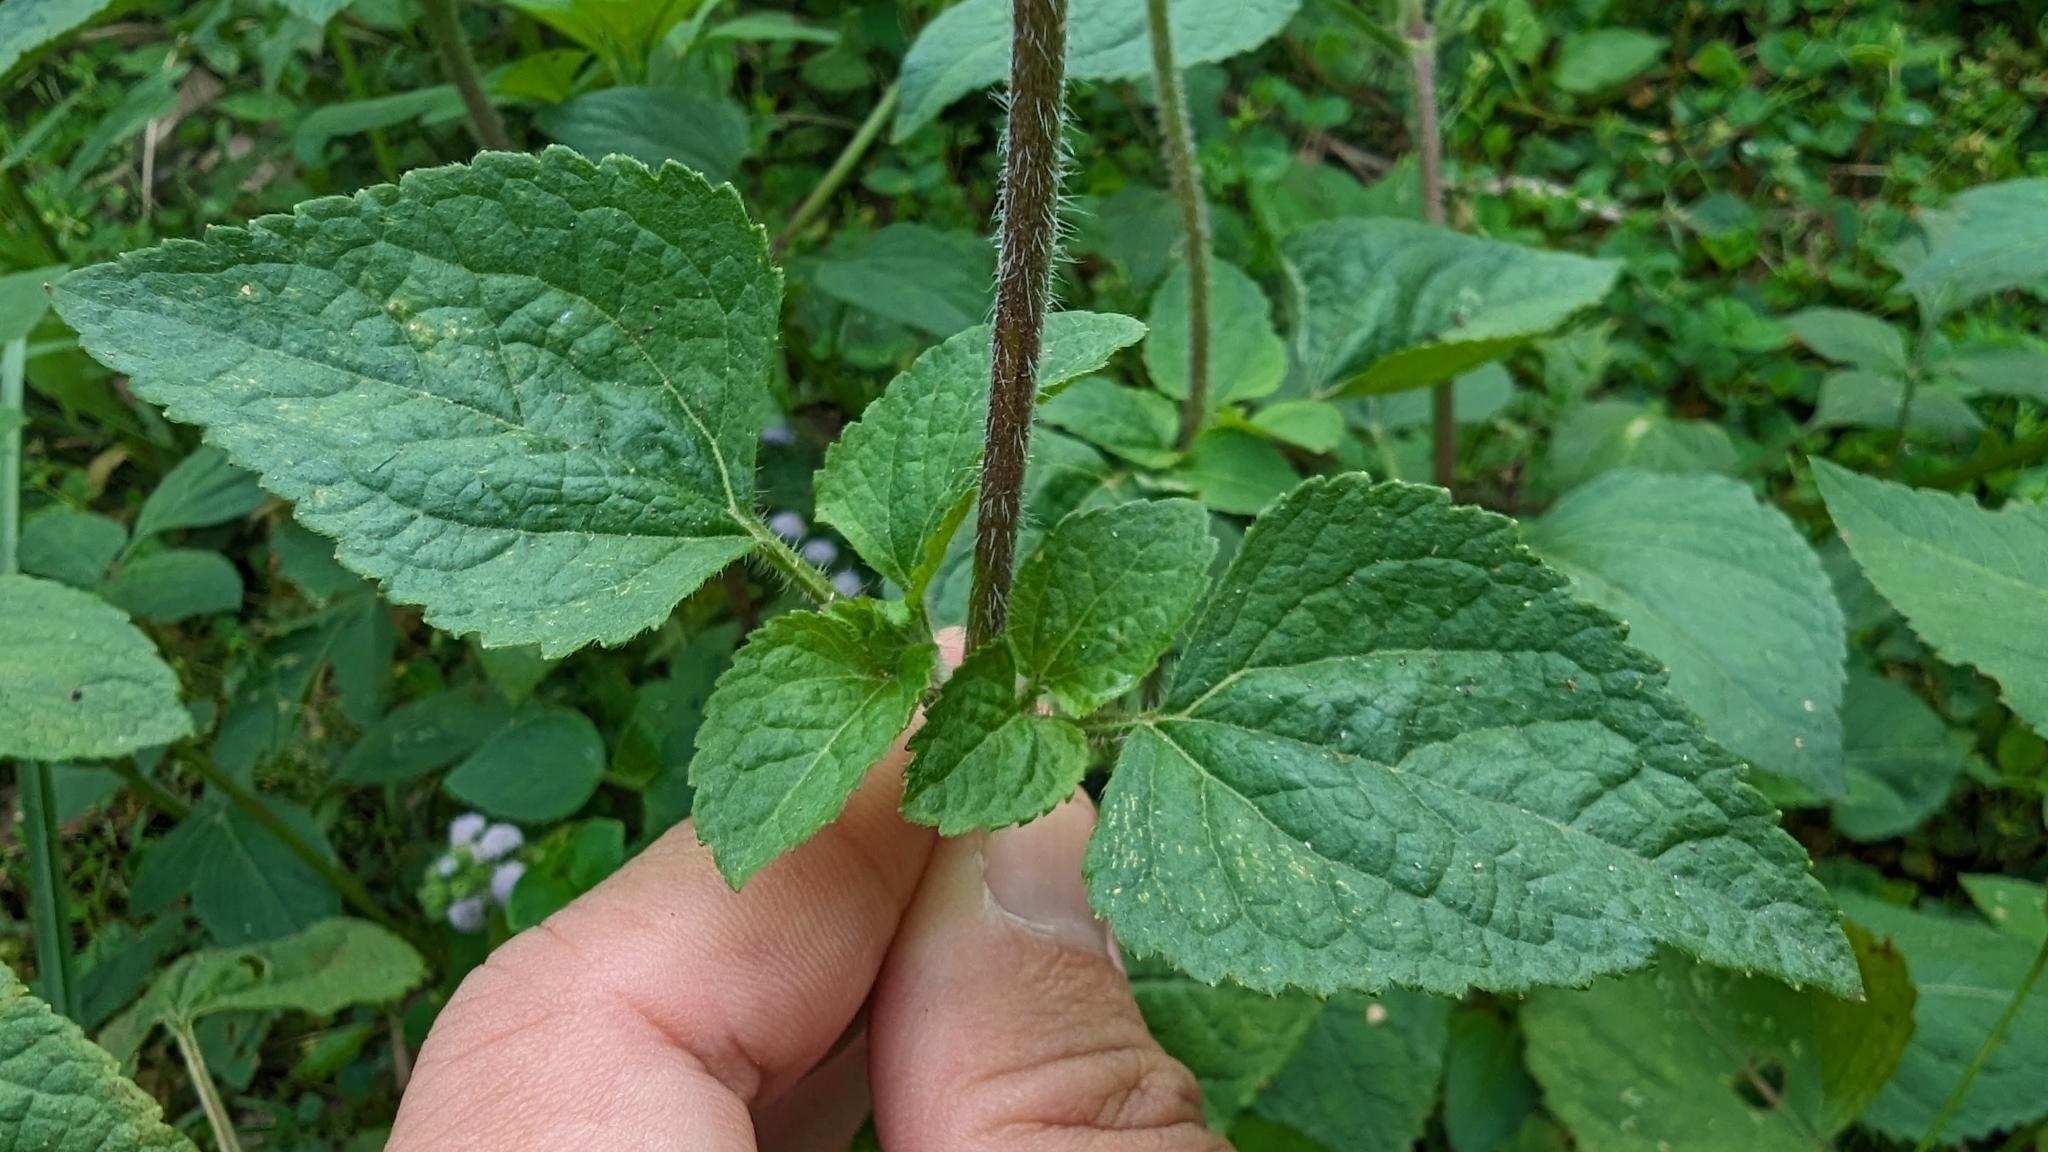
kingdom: Plantae
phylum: Tracheophyta
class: Magnoliopsida
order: Asterales
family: Asteraceae
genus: Ageratum
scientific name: Ageratum houstonianum
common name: Bluemink
